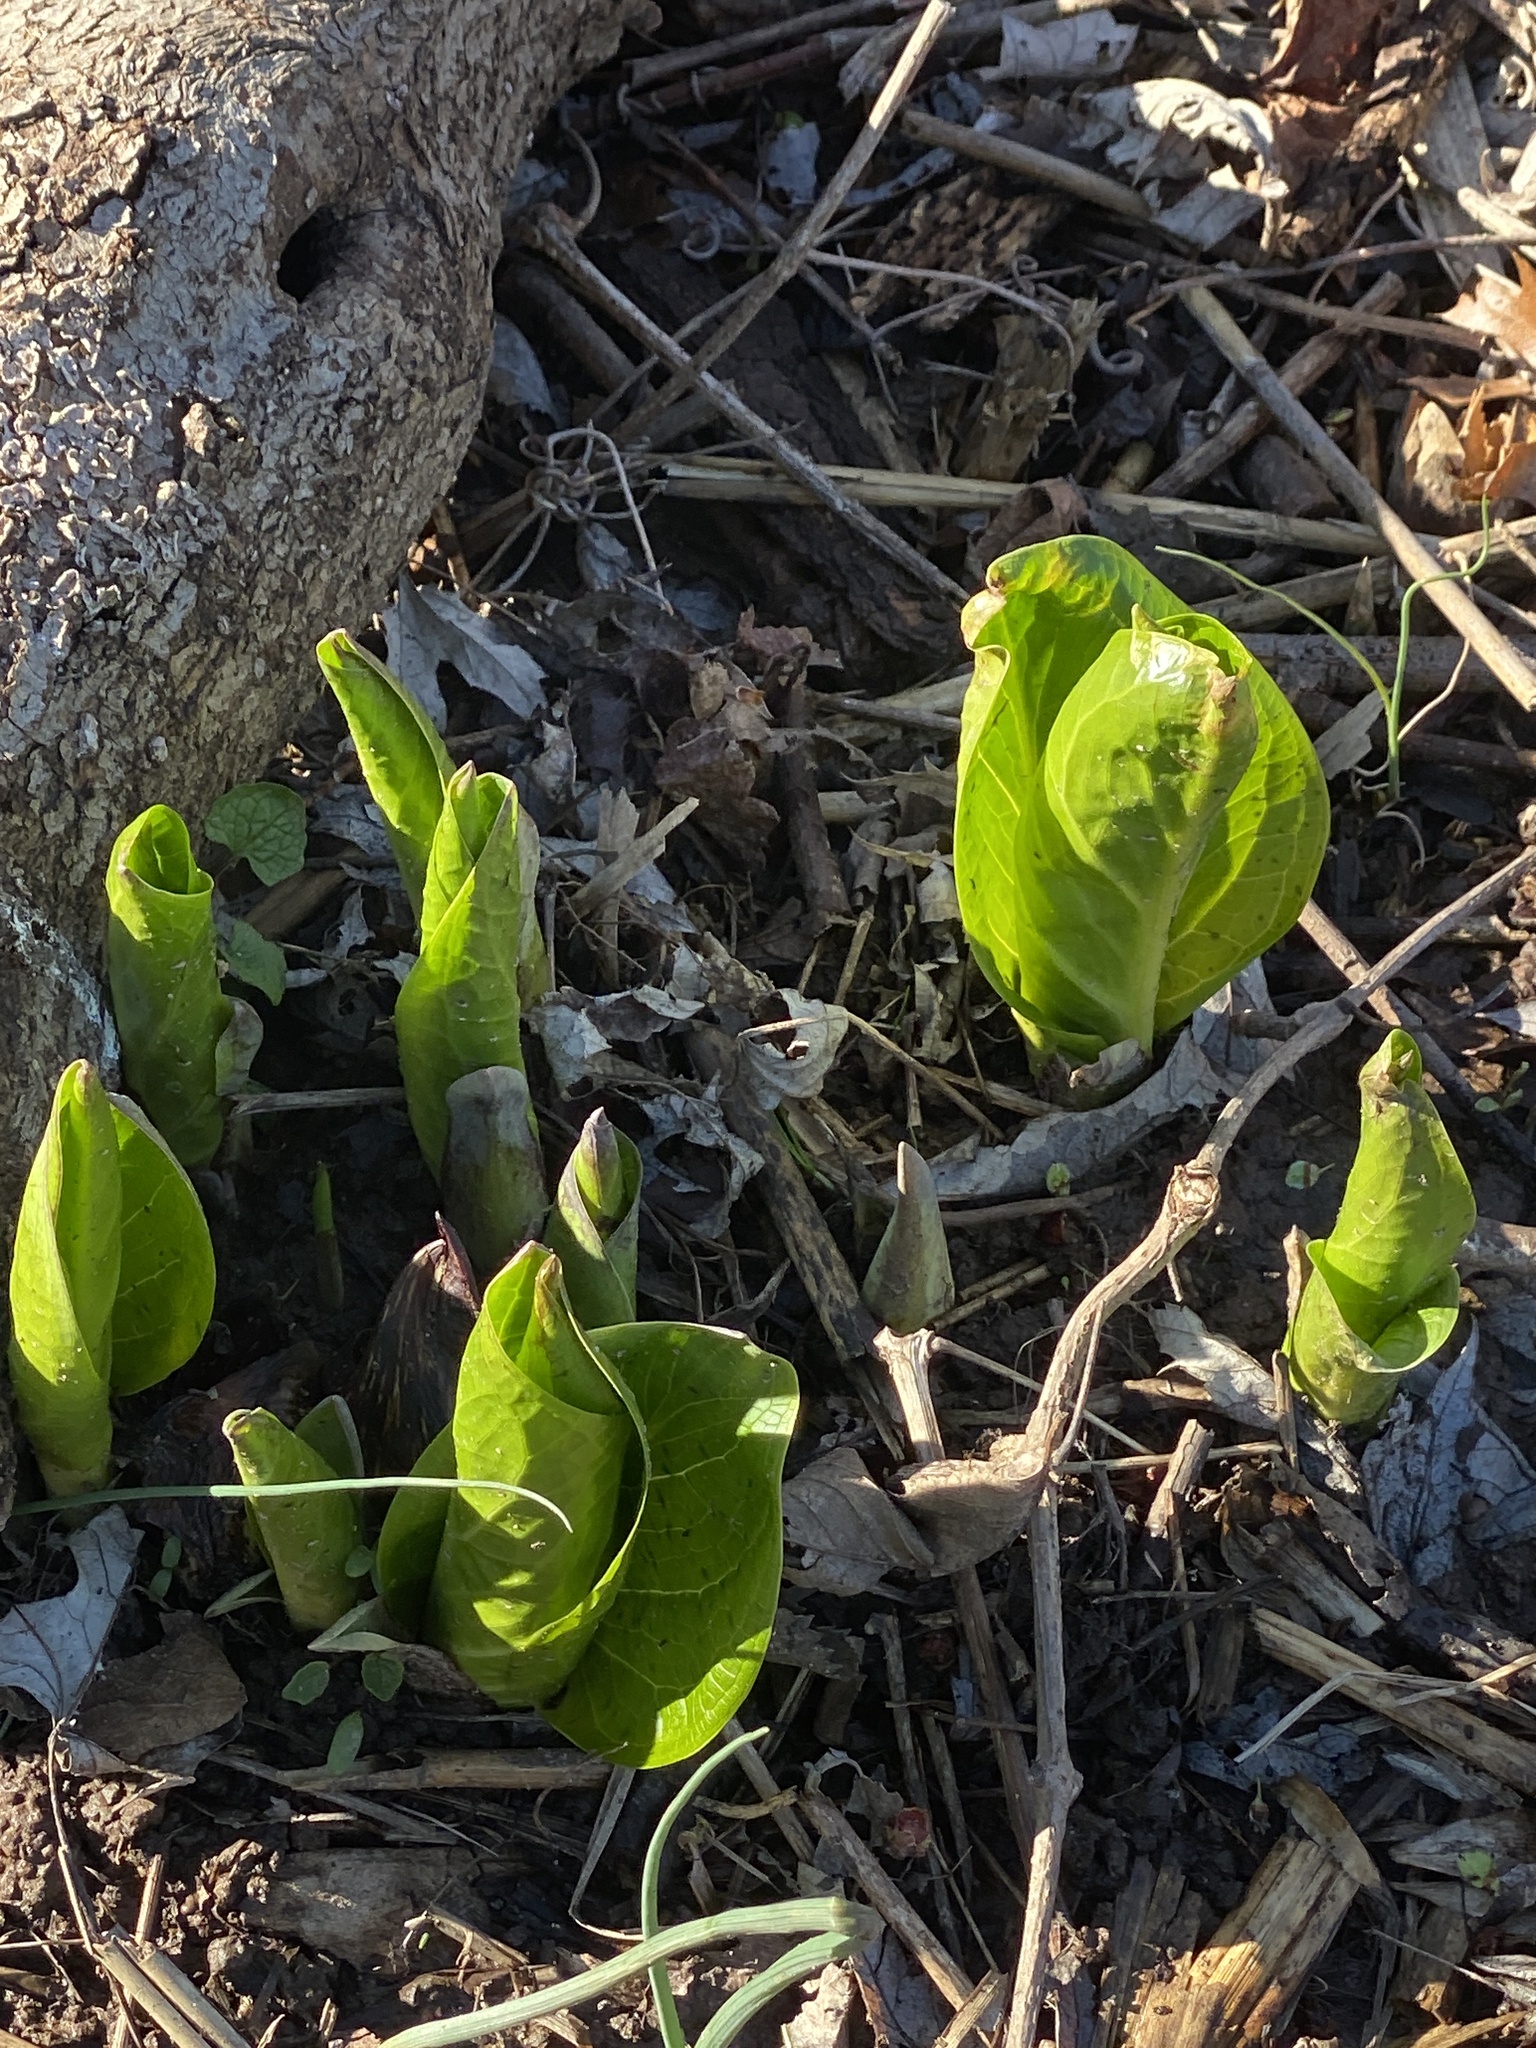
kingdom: Plantae
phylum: Tracheophyta
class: Liliopsida
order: Alismatales
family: Araceae
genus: Symplocarpus
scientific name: Symplocarpus foetidus
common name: Eastern skunk cabbage
